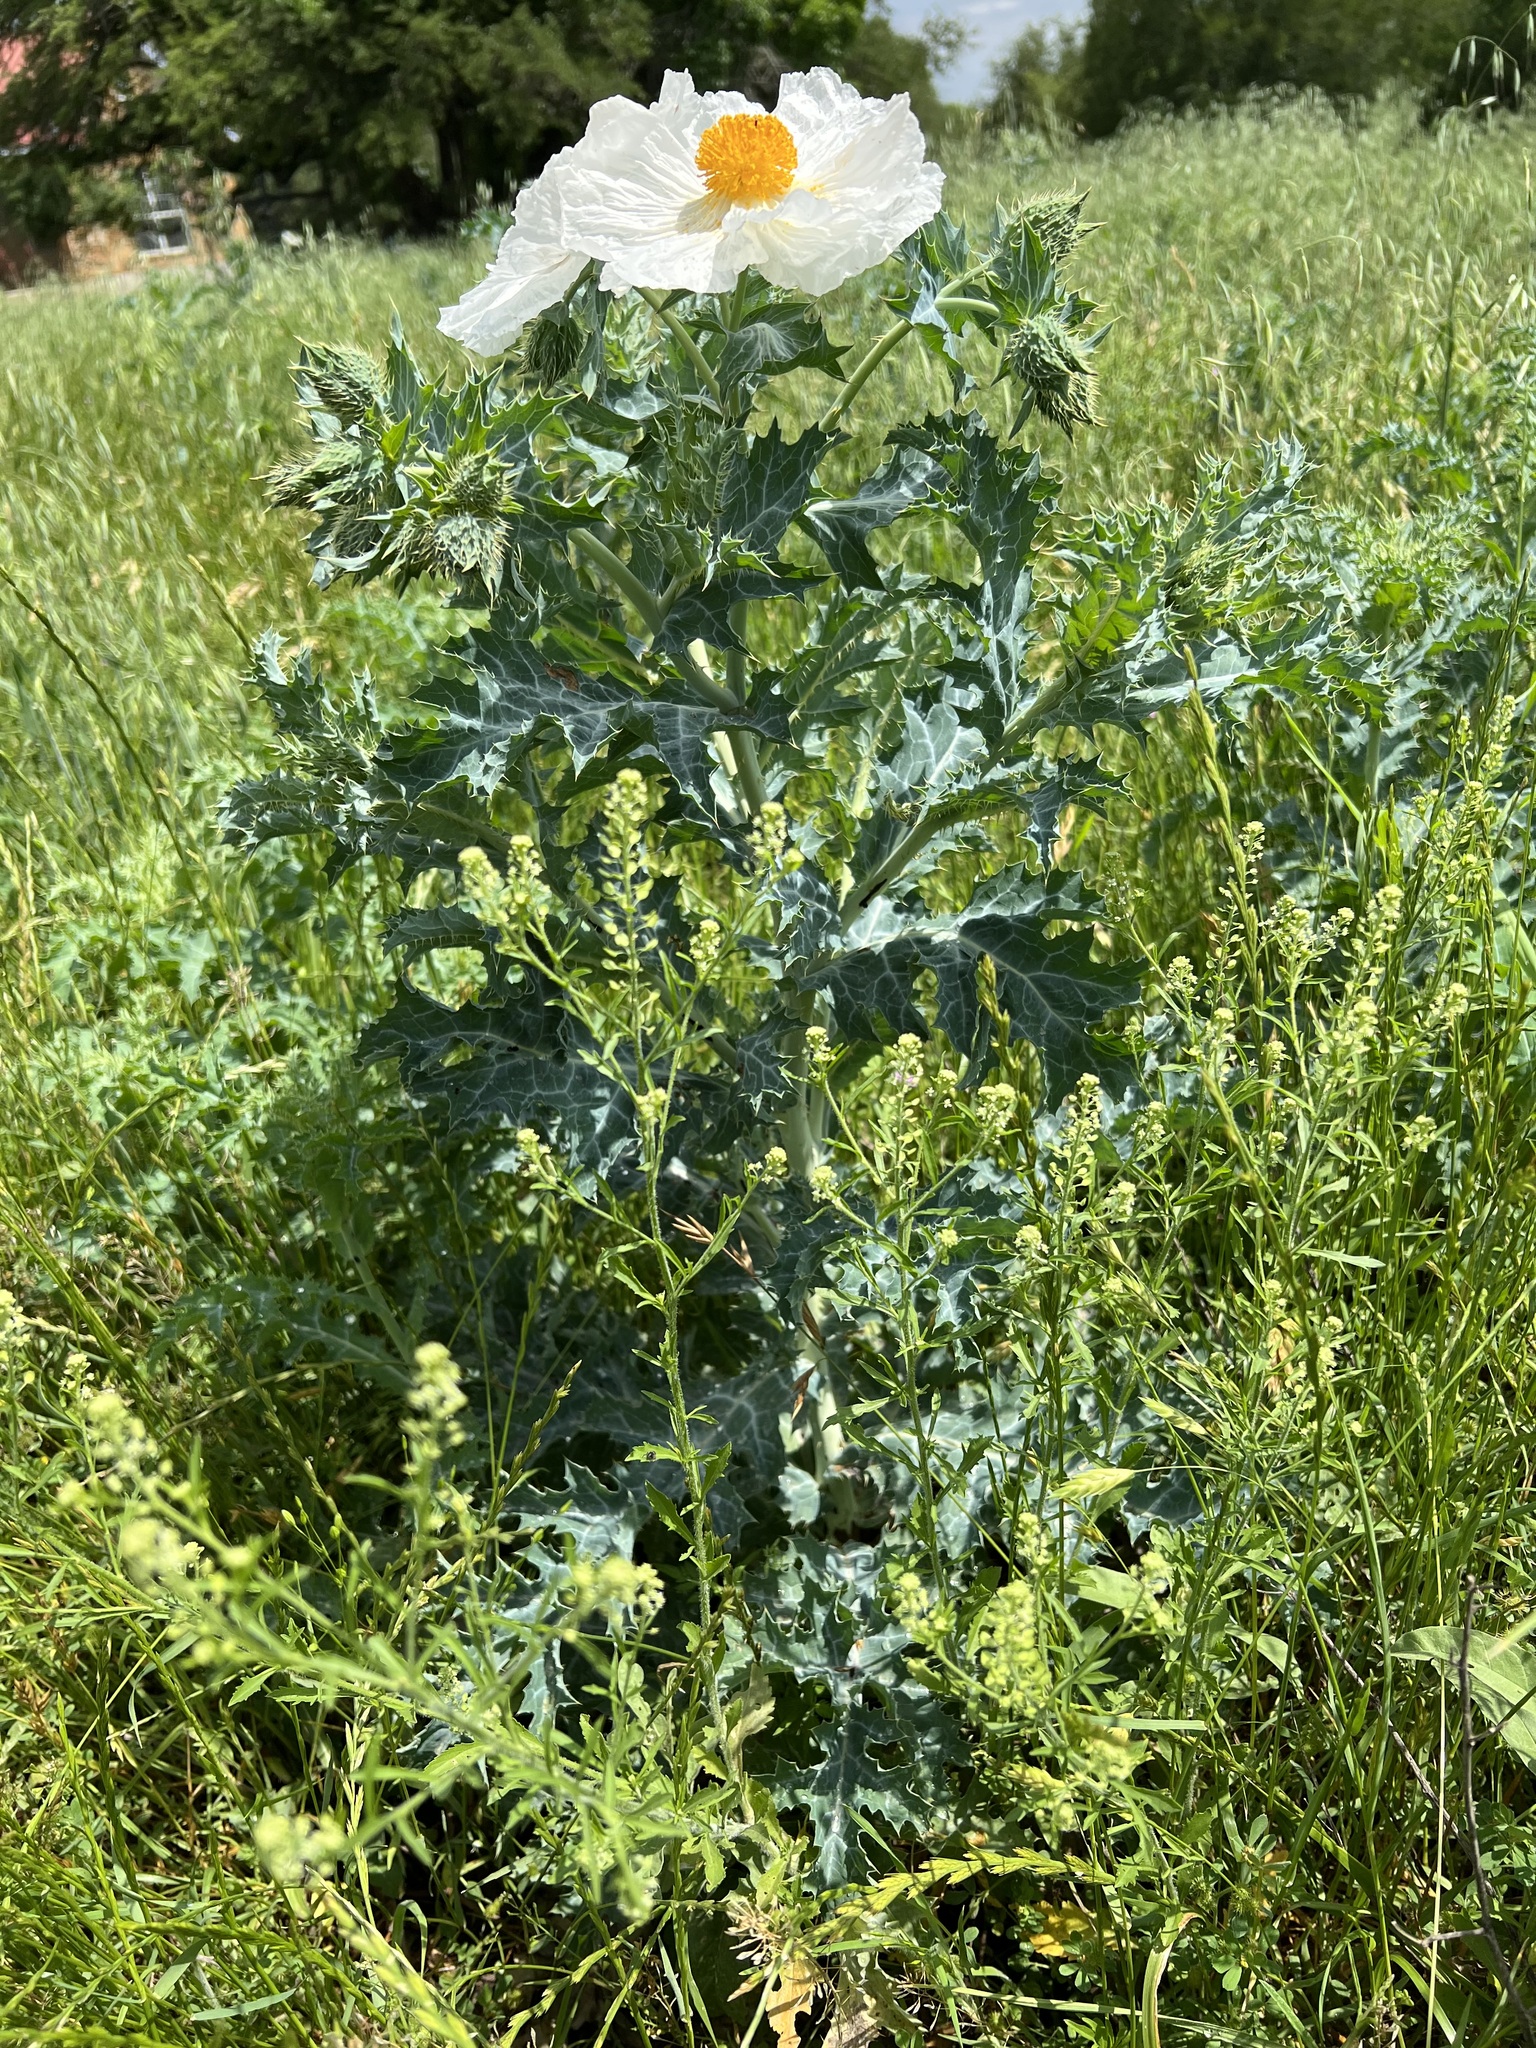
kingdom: Plantae
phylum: Tracheophyta
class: Magnoliopsida
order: Ranunculales
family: Papaveraceae
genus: Argemone
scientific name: Argemone albiflora
